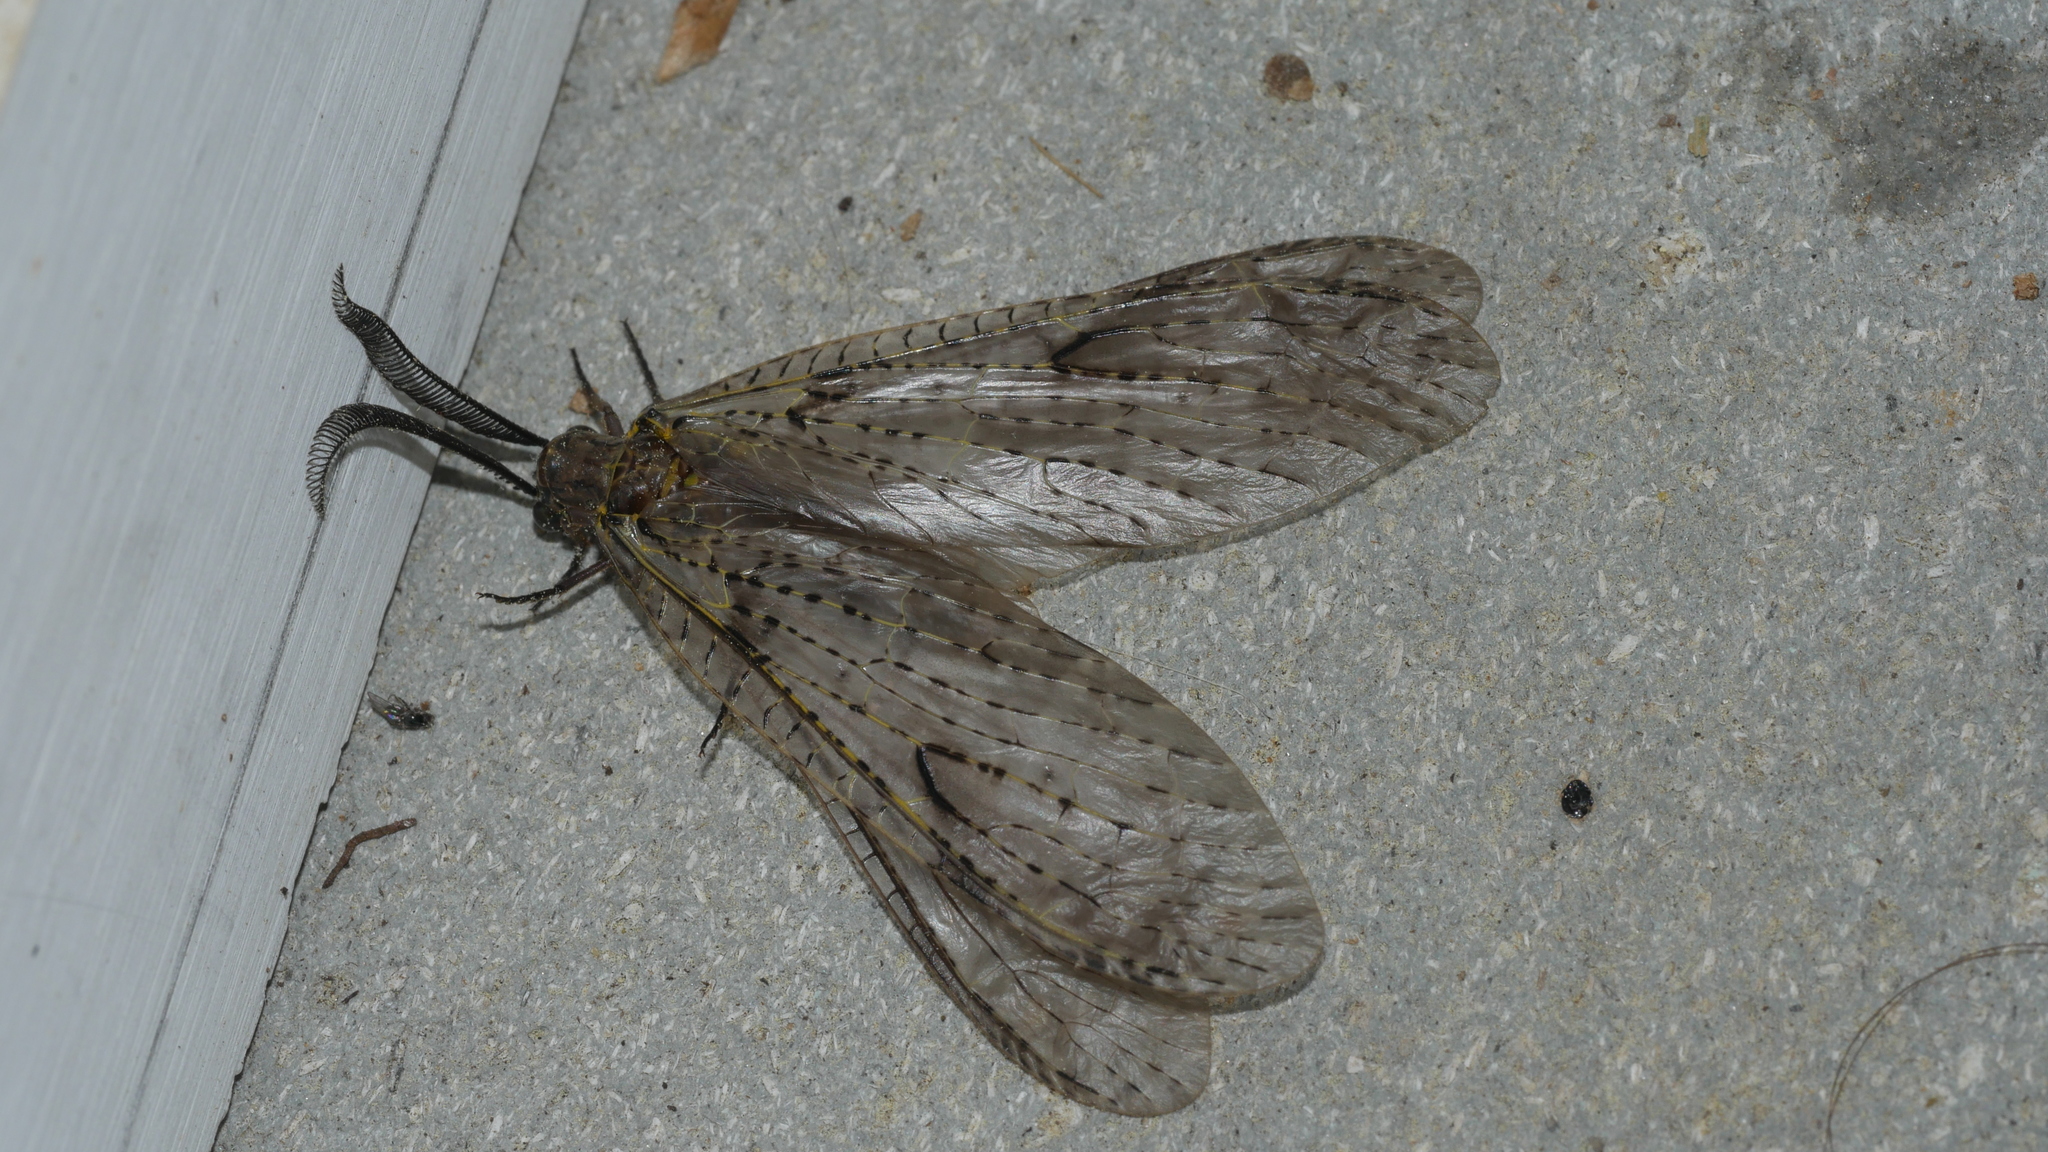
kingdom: Animalia
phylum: Arthropoda
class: Insecta
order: Megaloptera
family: Corydalidae
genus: Chauliodes
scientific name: Chauliodes rastricornis
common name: Spring fishfly
